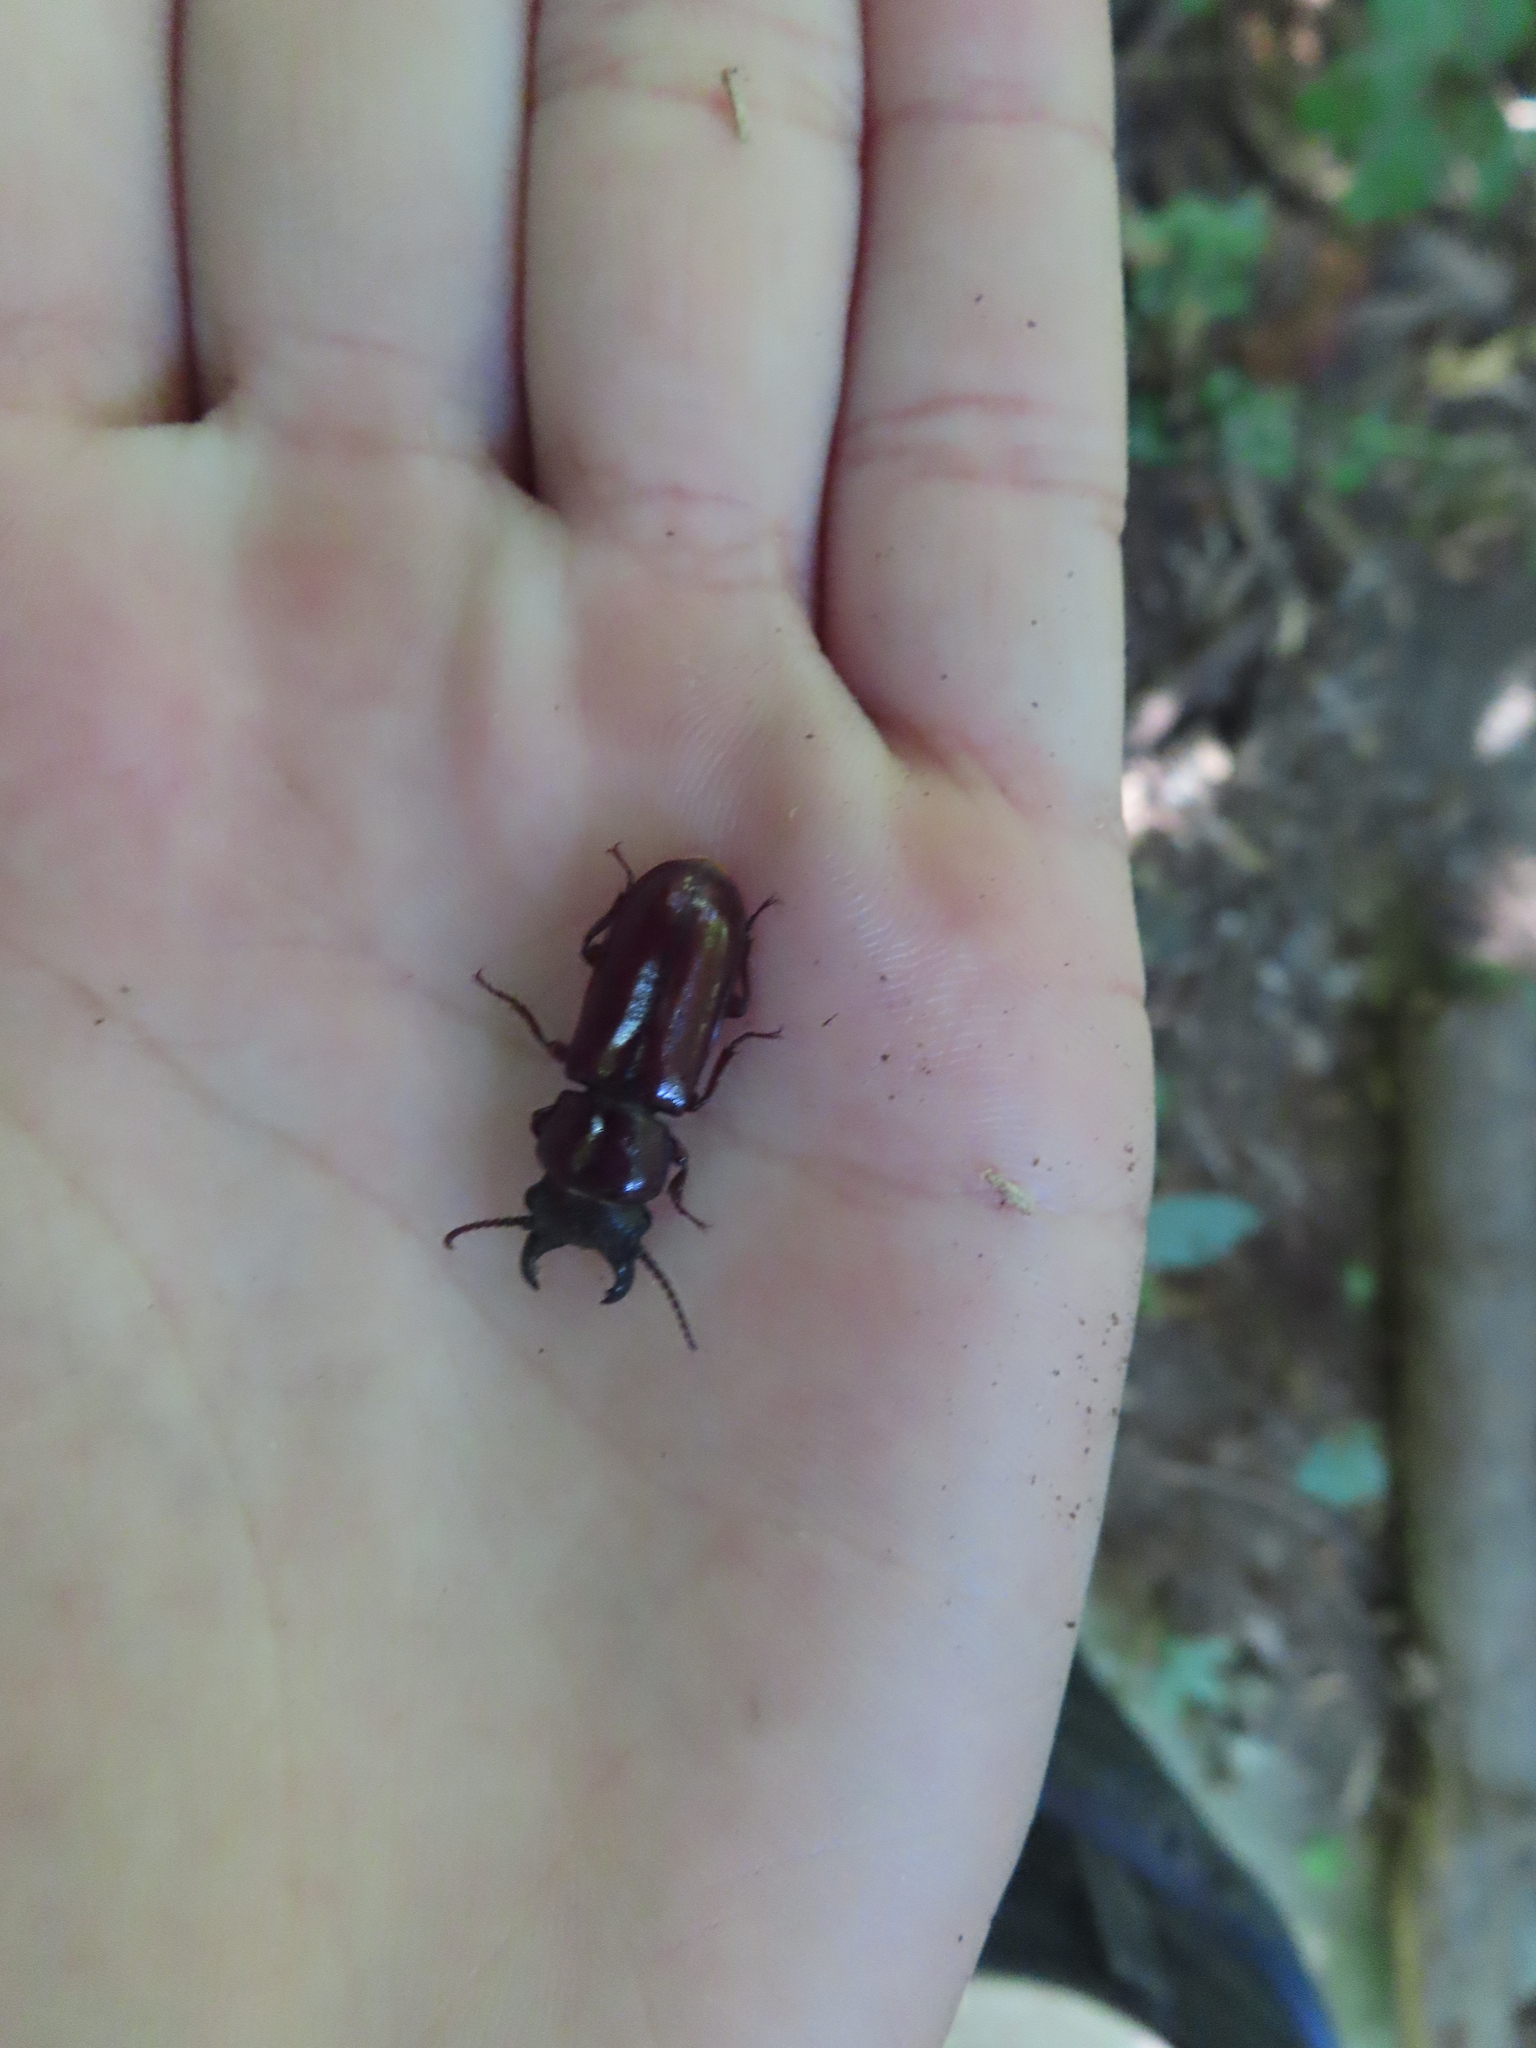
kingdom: Animalia
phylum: Arthropoda
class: Insecta
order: Coleoptera
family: Cerambycidae
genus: Neandra
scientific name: Neandra brunnea
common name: Pole borer
